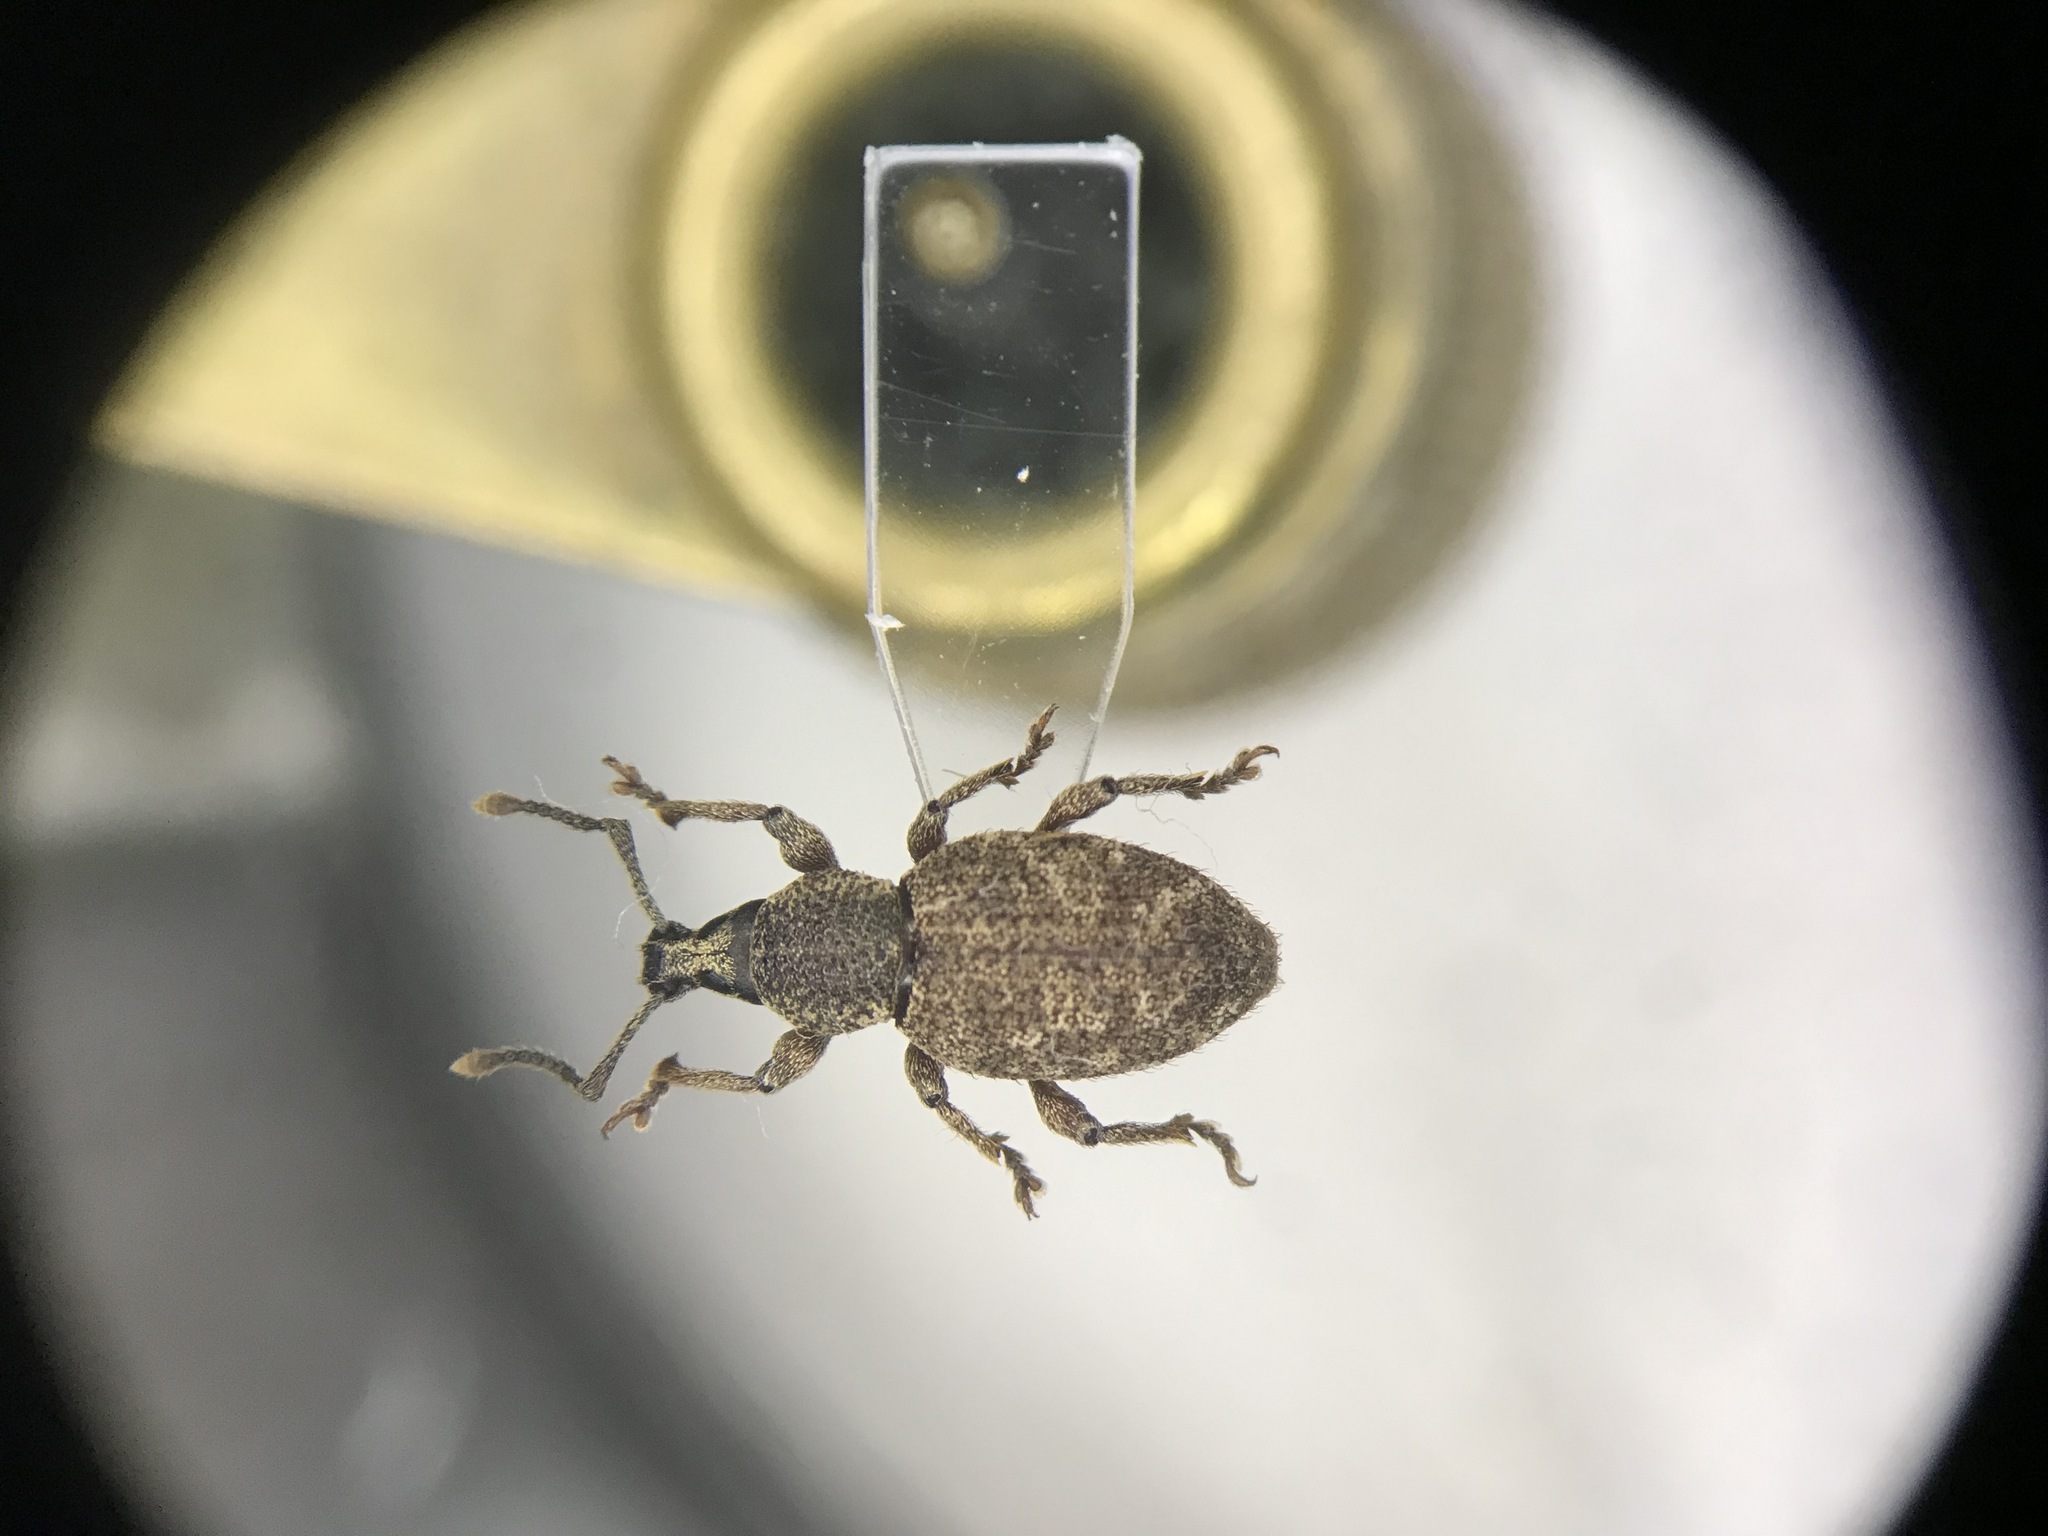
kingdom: Animalia
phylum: Arthropoda
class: Insecta
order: Coleoptera
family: Curculionidae
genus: Otiorhynchus
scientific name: Otiorhynchus singularis
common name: Clay-coloured weevil
